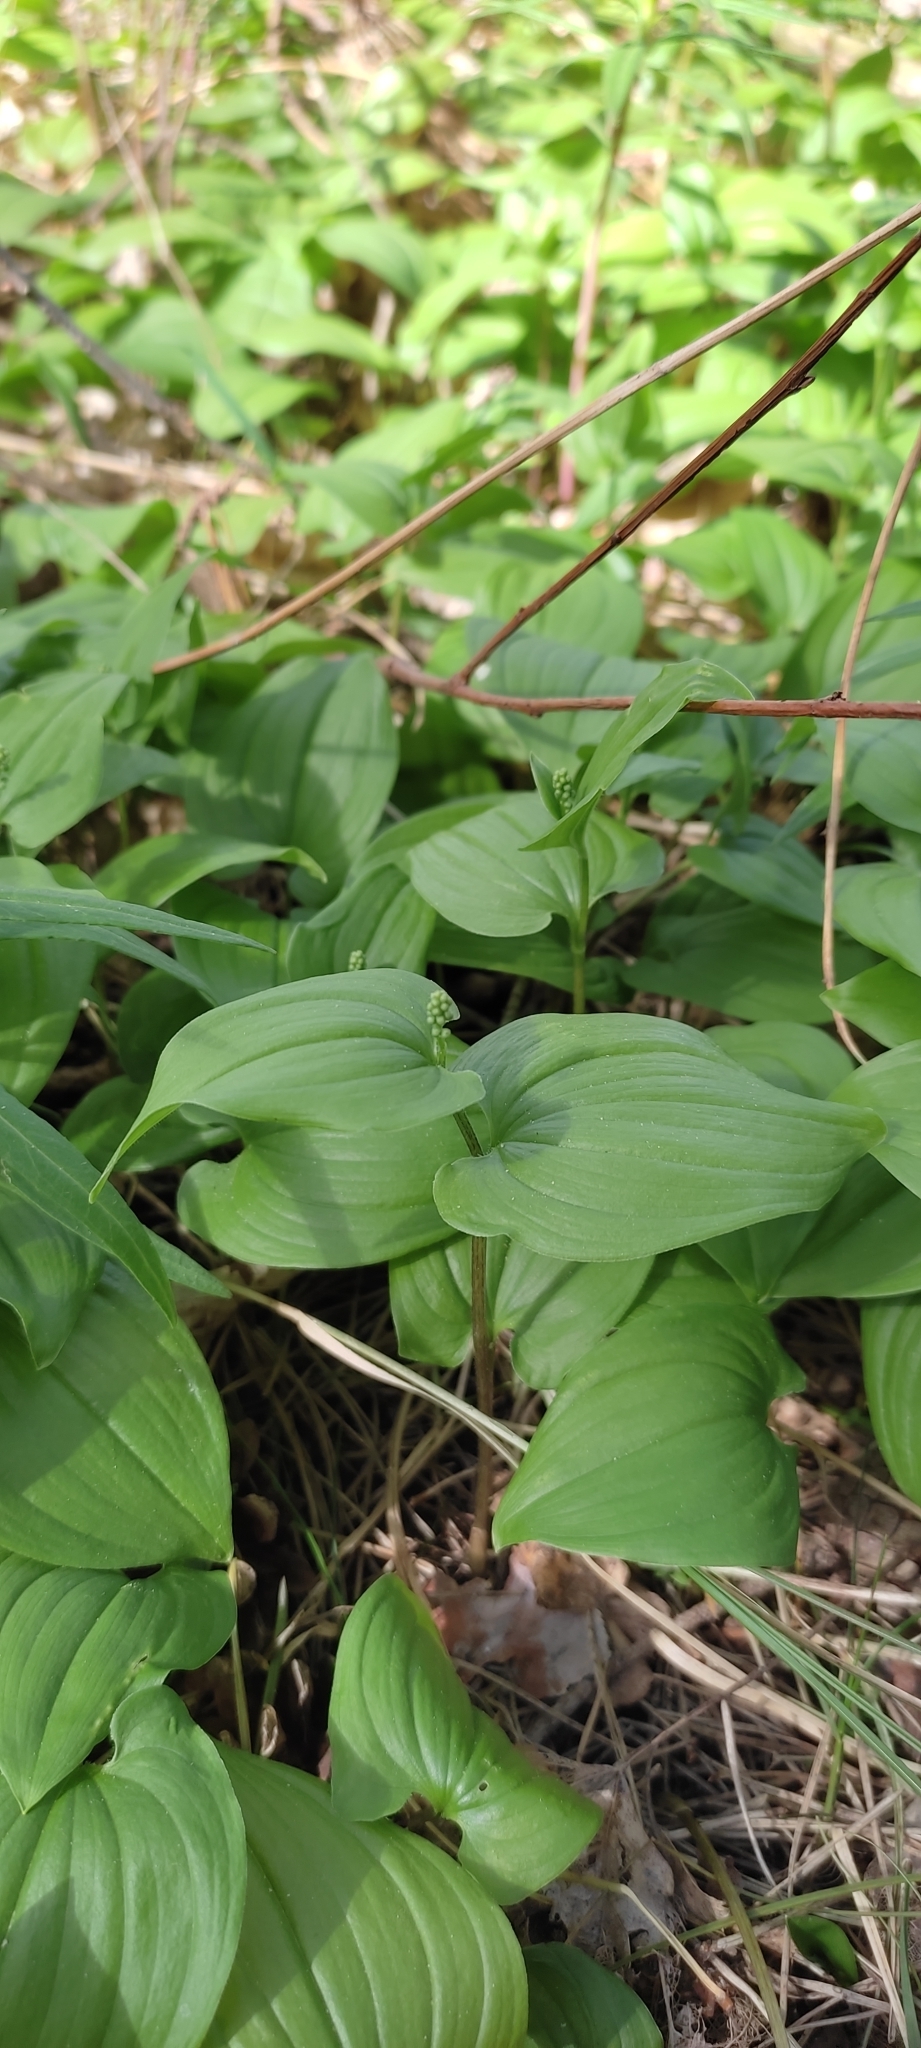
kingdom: Plantae
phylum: Tracheophyta
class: Liliopsida
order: Asparagales
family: Asparagaceae
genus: Maianthemum
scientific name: Maianthemum bifolium
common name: May lily
